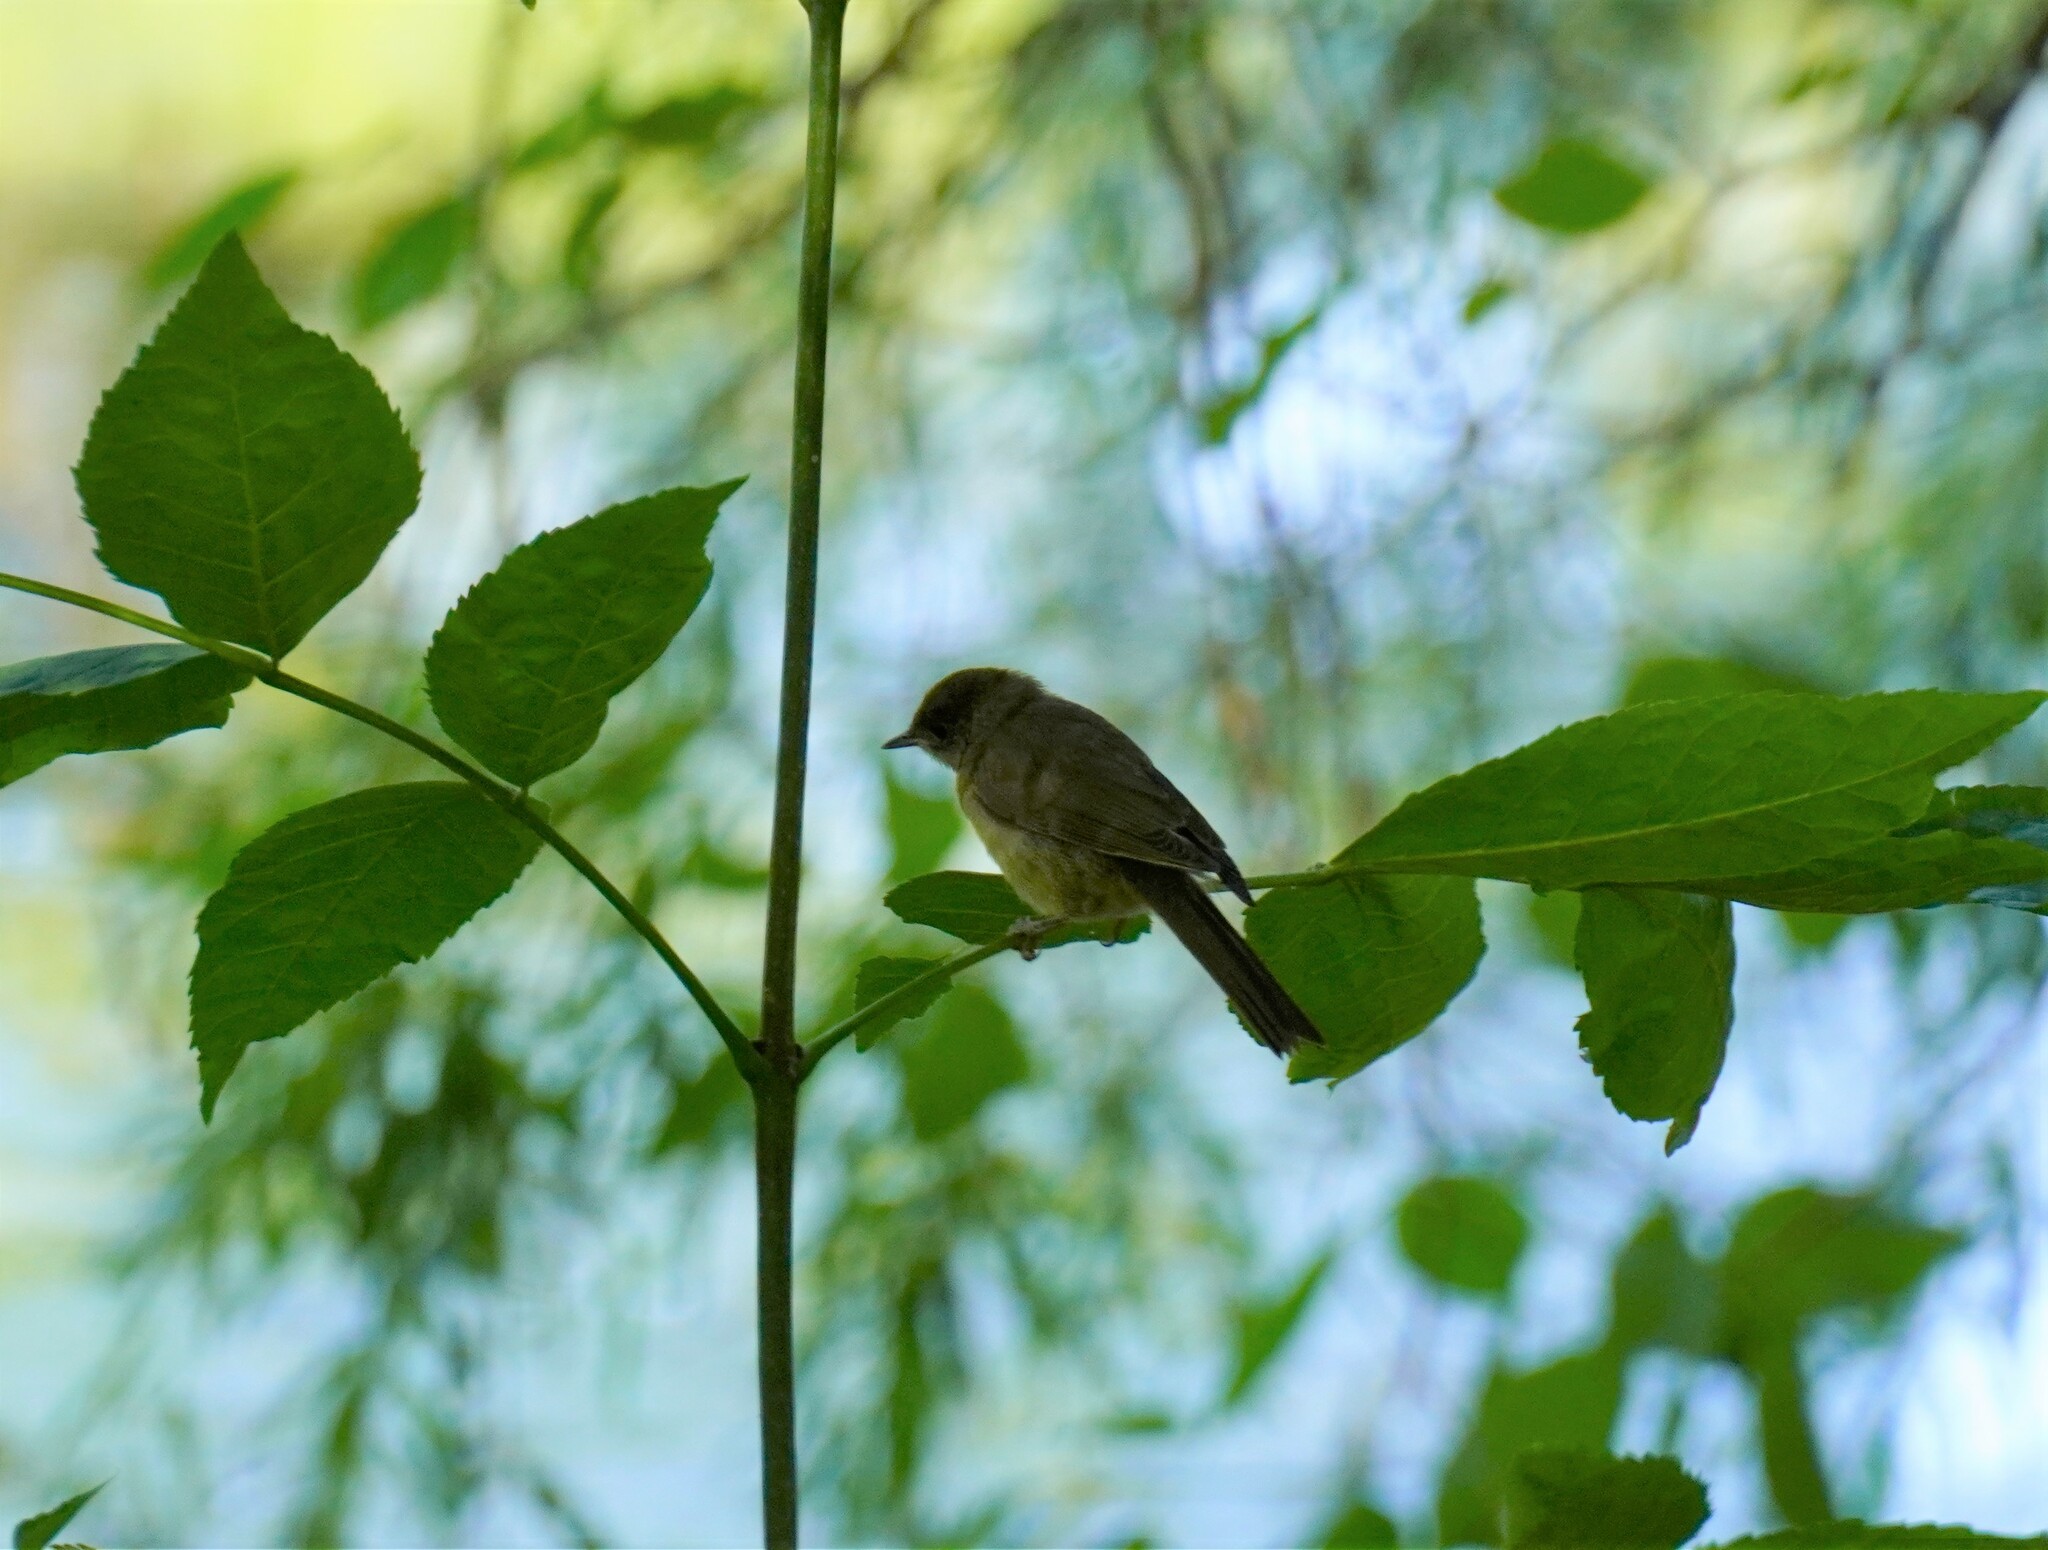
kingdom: Animalia
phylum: Chordata
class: Aves
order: Passeriformes
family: Sylviidae
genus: Sylvia
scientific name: Sylvia atricapilla
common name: Eurasian blackcap
